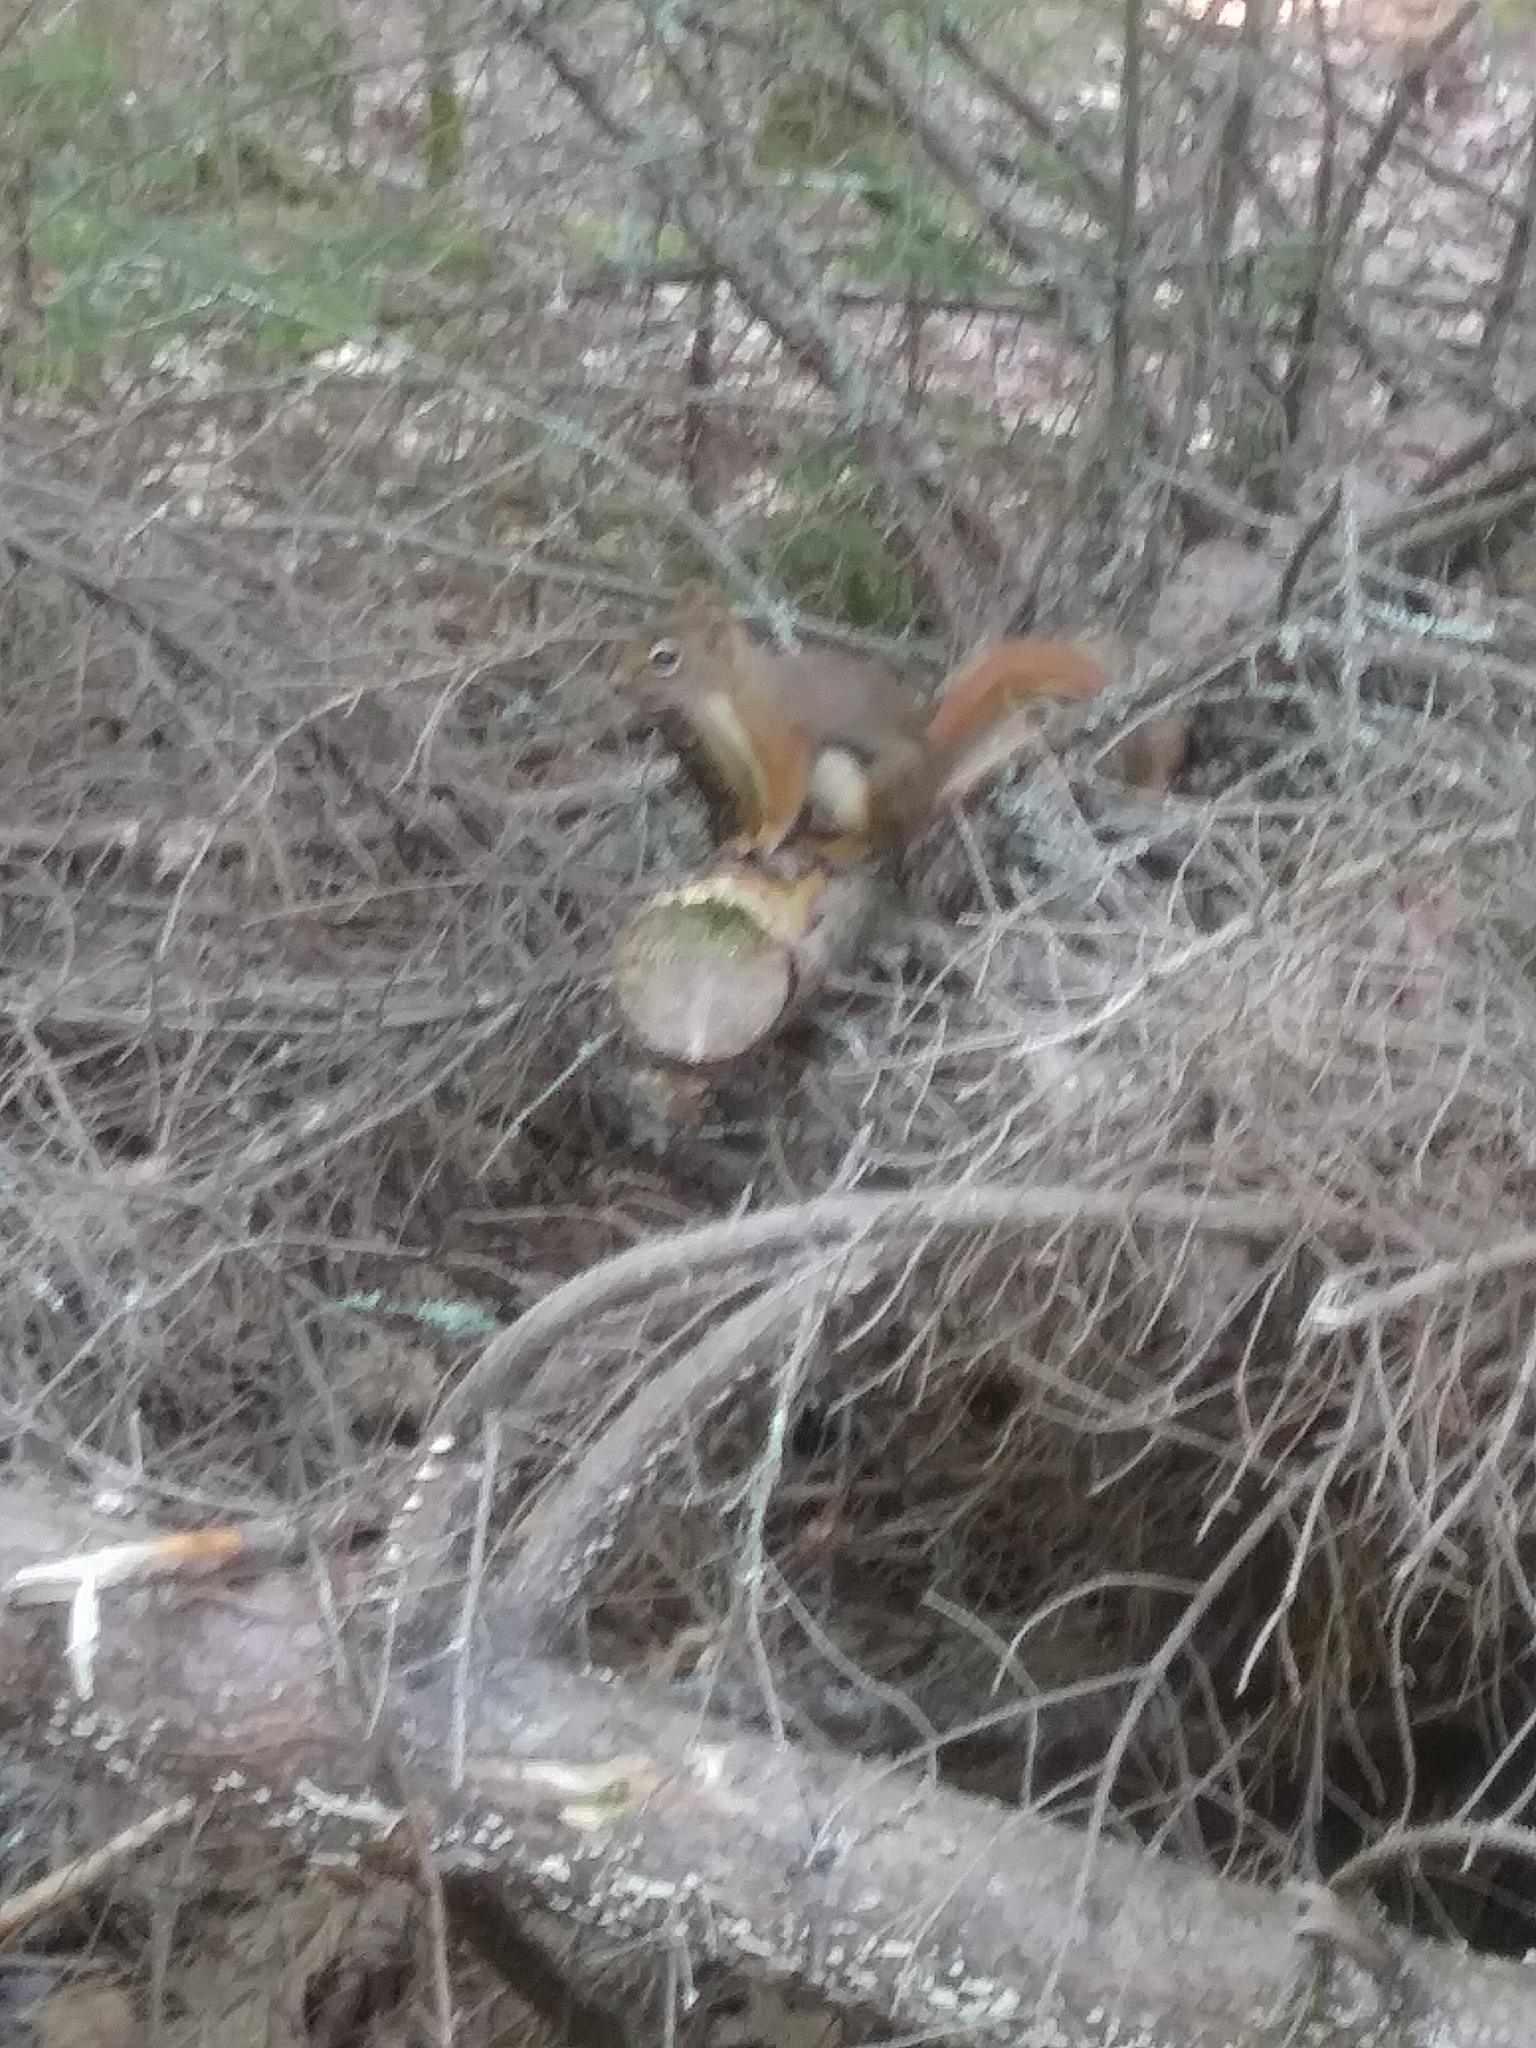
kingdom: Animalia
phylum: Chordata
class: Mammalia
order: Rodentia
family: Sciuridae
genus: Tamiasciurus
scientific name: Tamiasciurus hudsonicus
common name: Red squirrel
